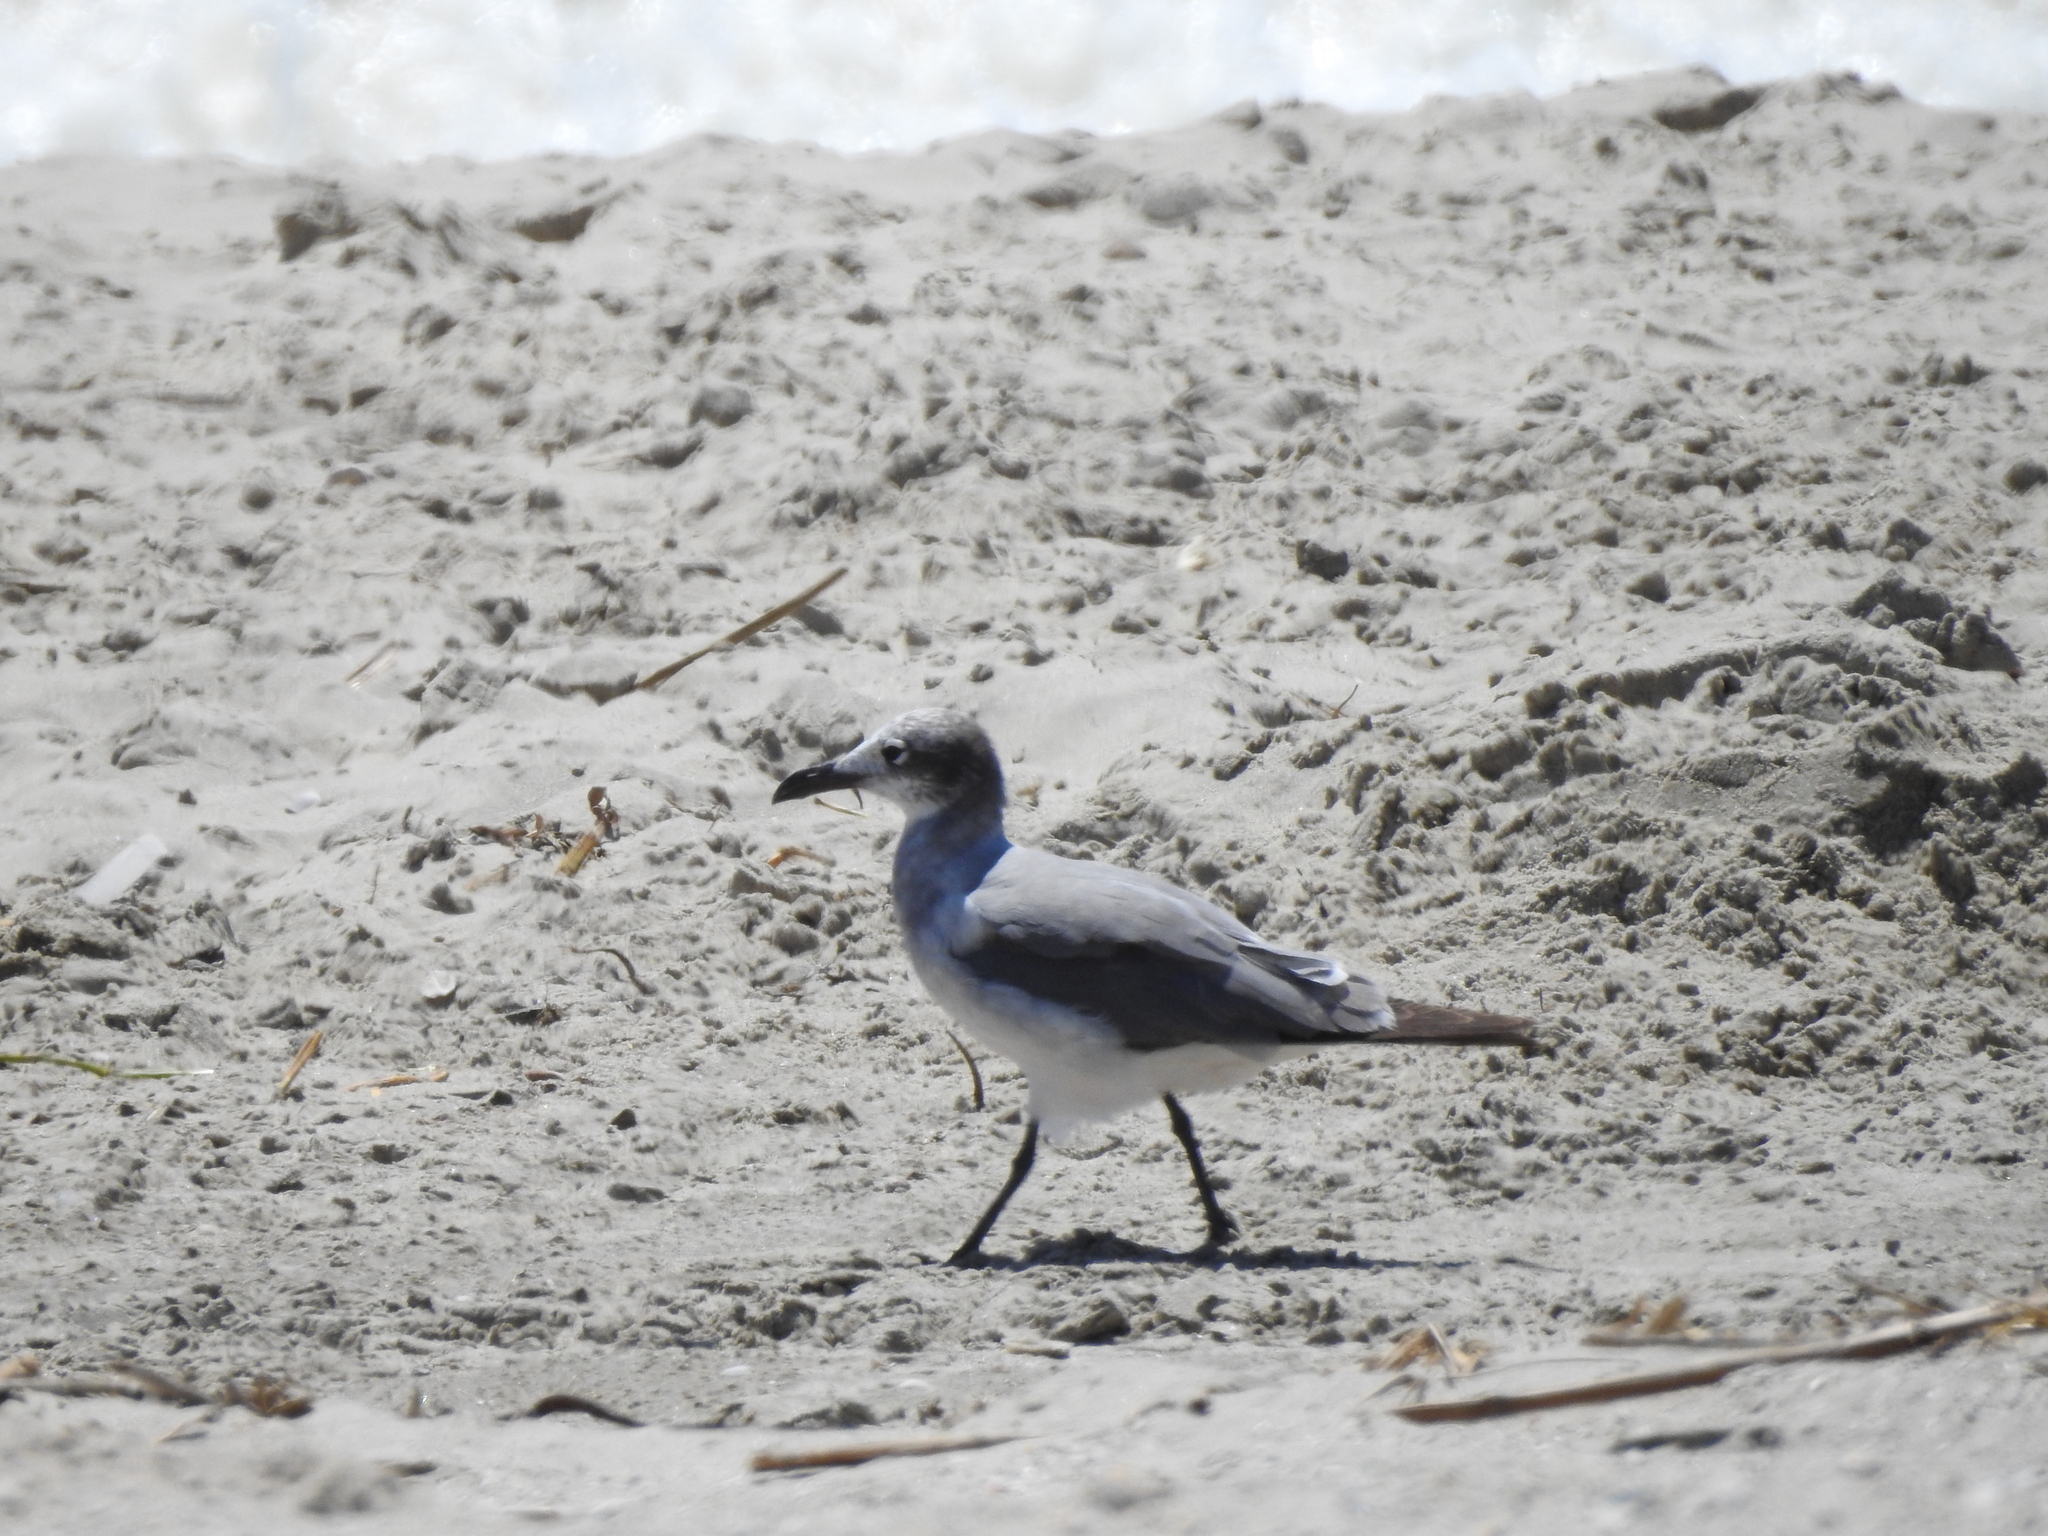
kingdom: Animalia
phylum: Chordata
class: Aves
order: Charadriiformes
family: Laridae
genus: Leucophaeus
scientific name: Leucophaeus atricilla
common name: Laughing gull
